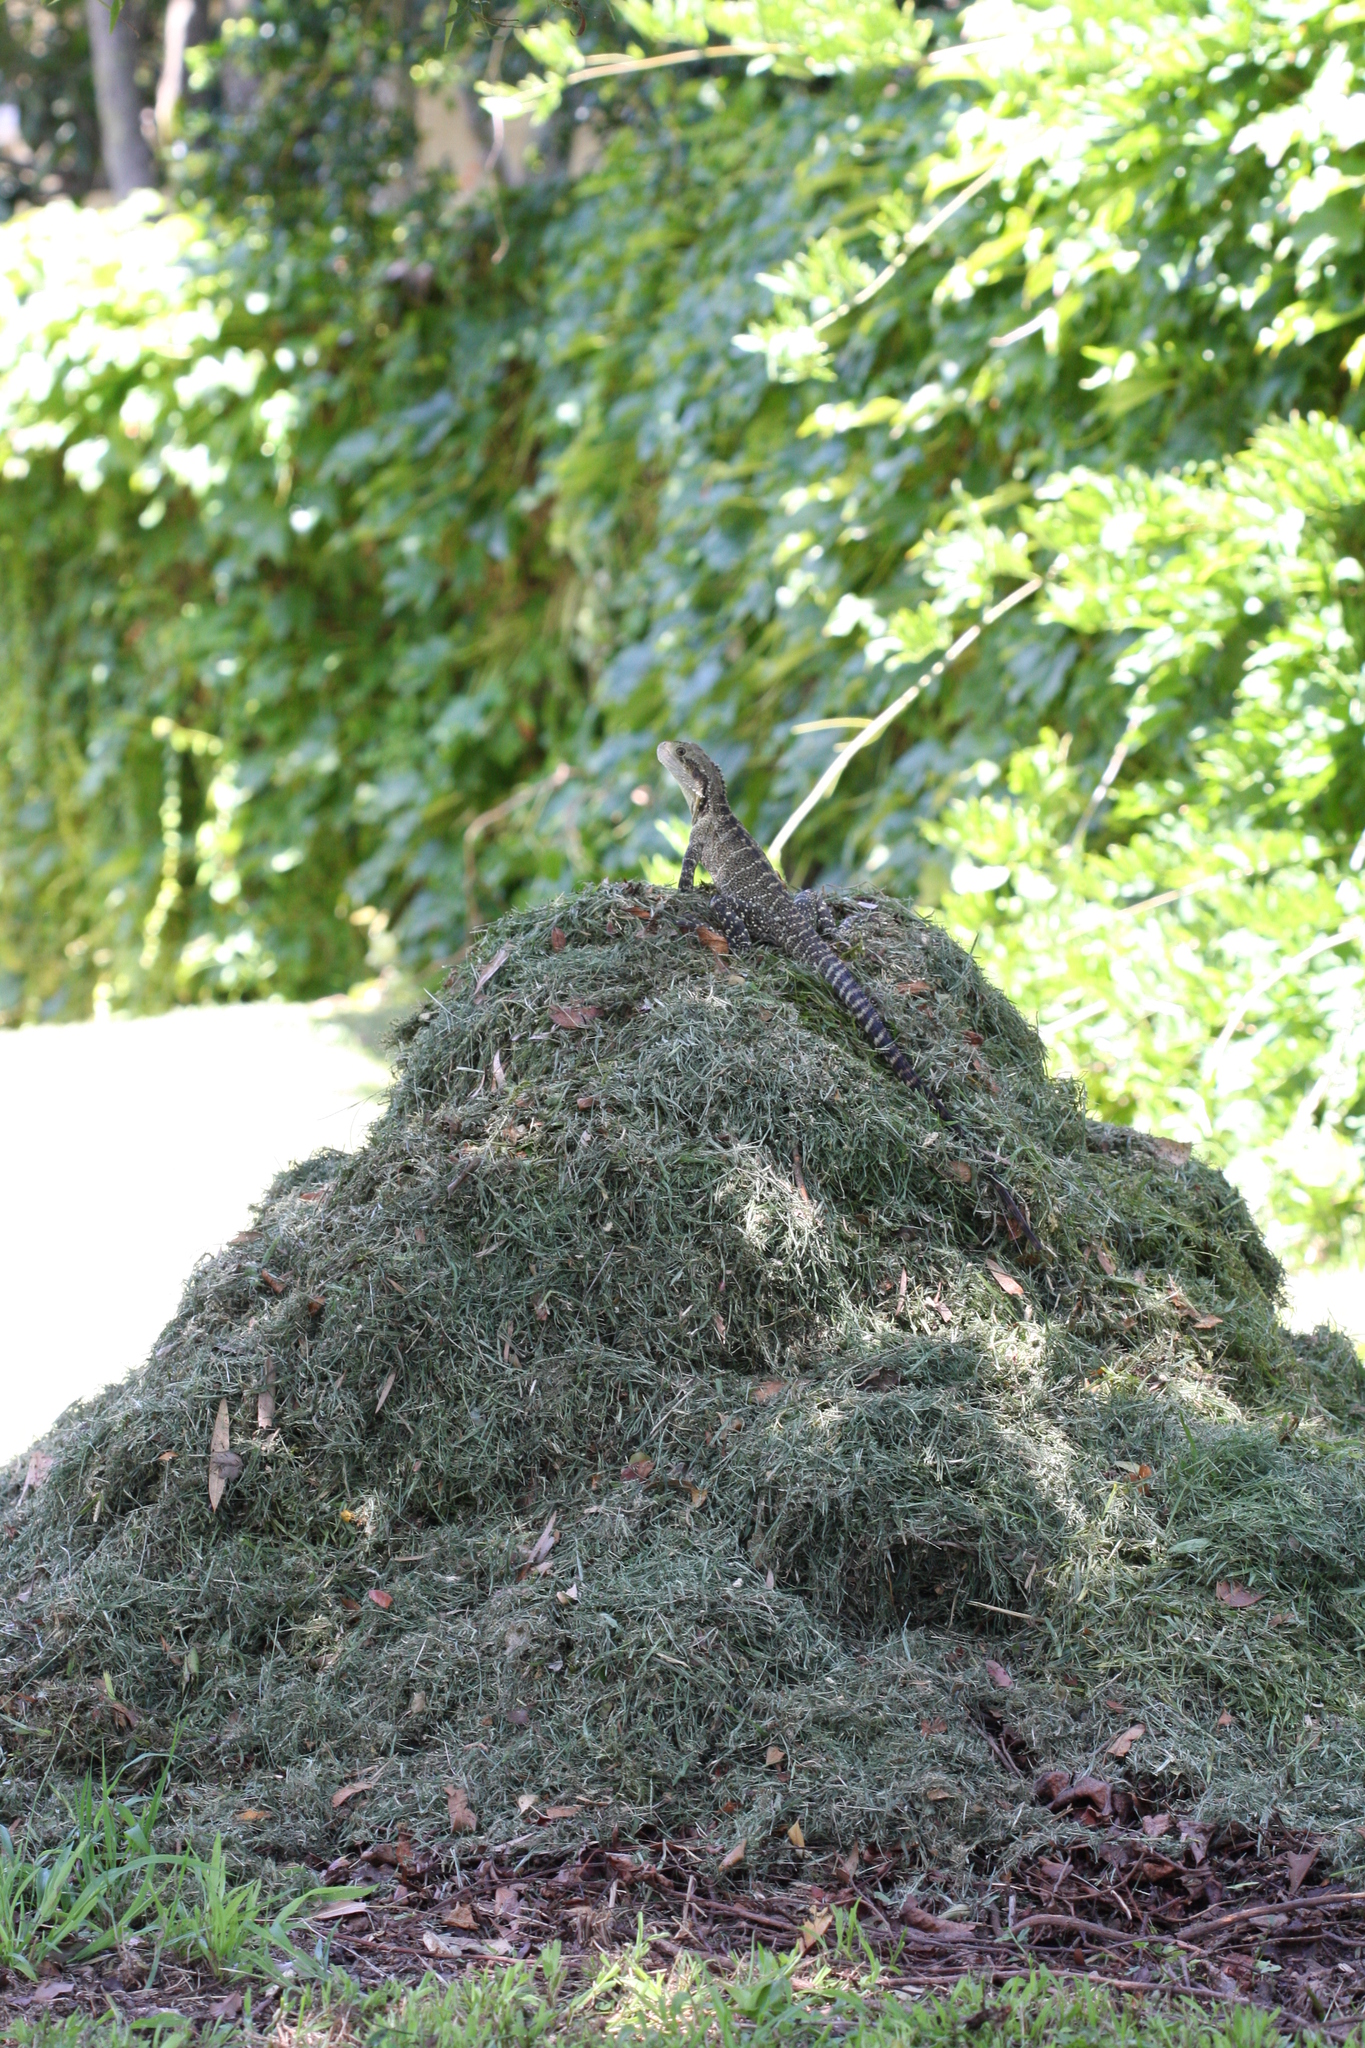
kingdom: Animalia
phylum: Chordata
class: Squamata
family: Agamidae
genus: Intellagama
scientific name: Intellagama lesueurii
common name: Eastern water dragon
